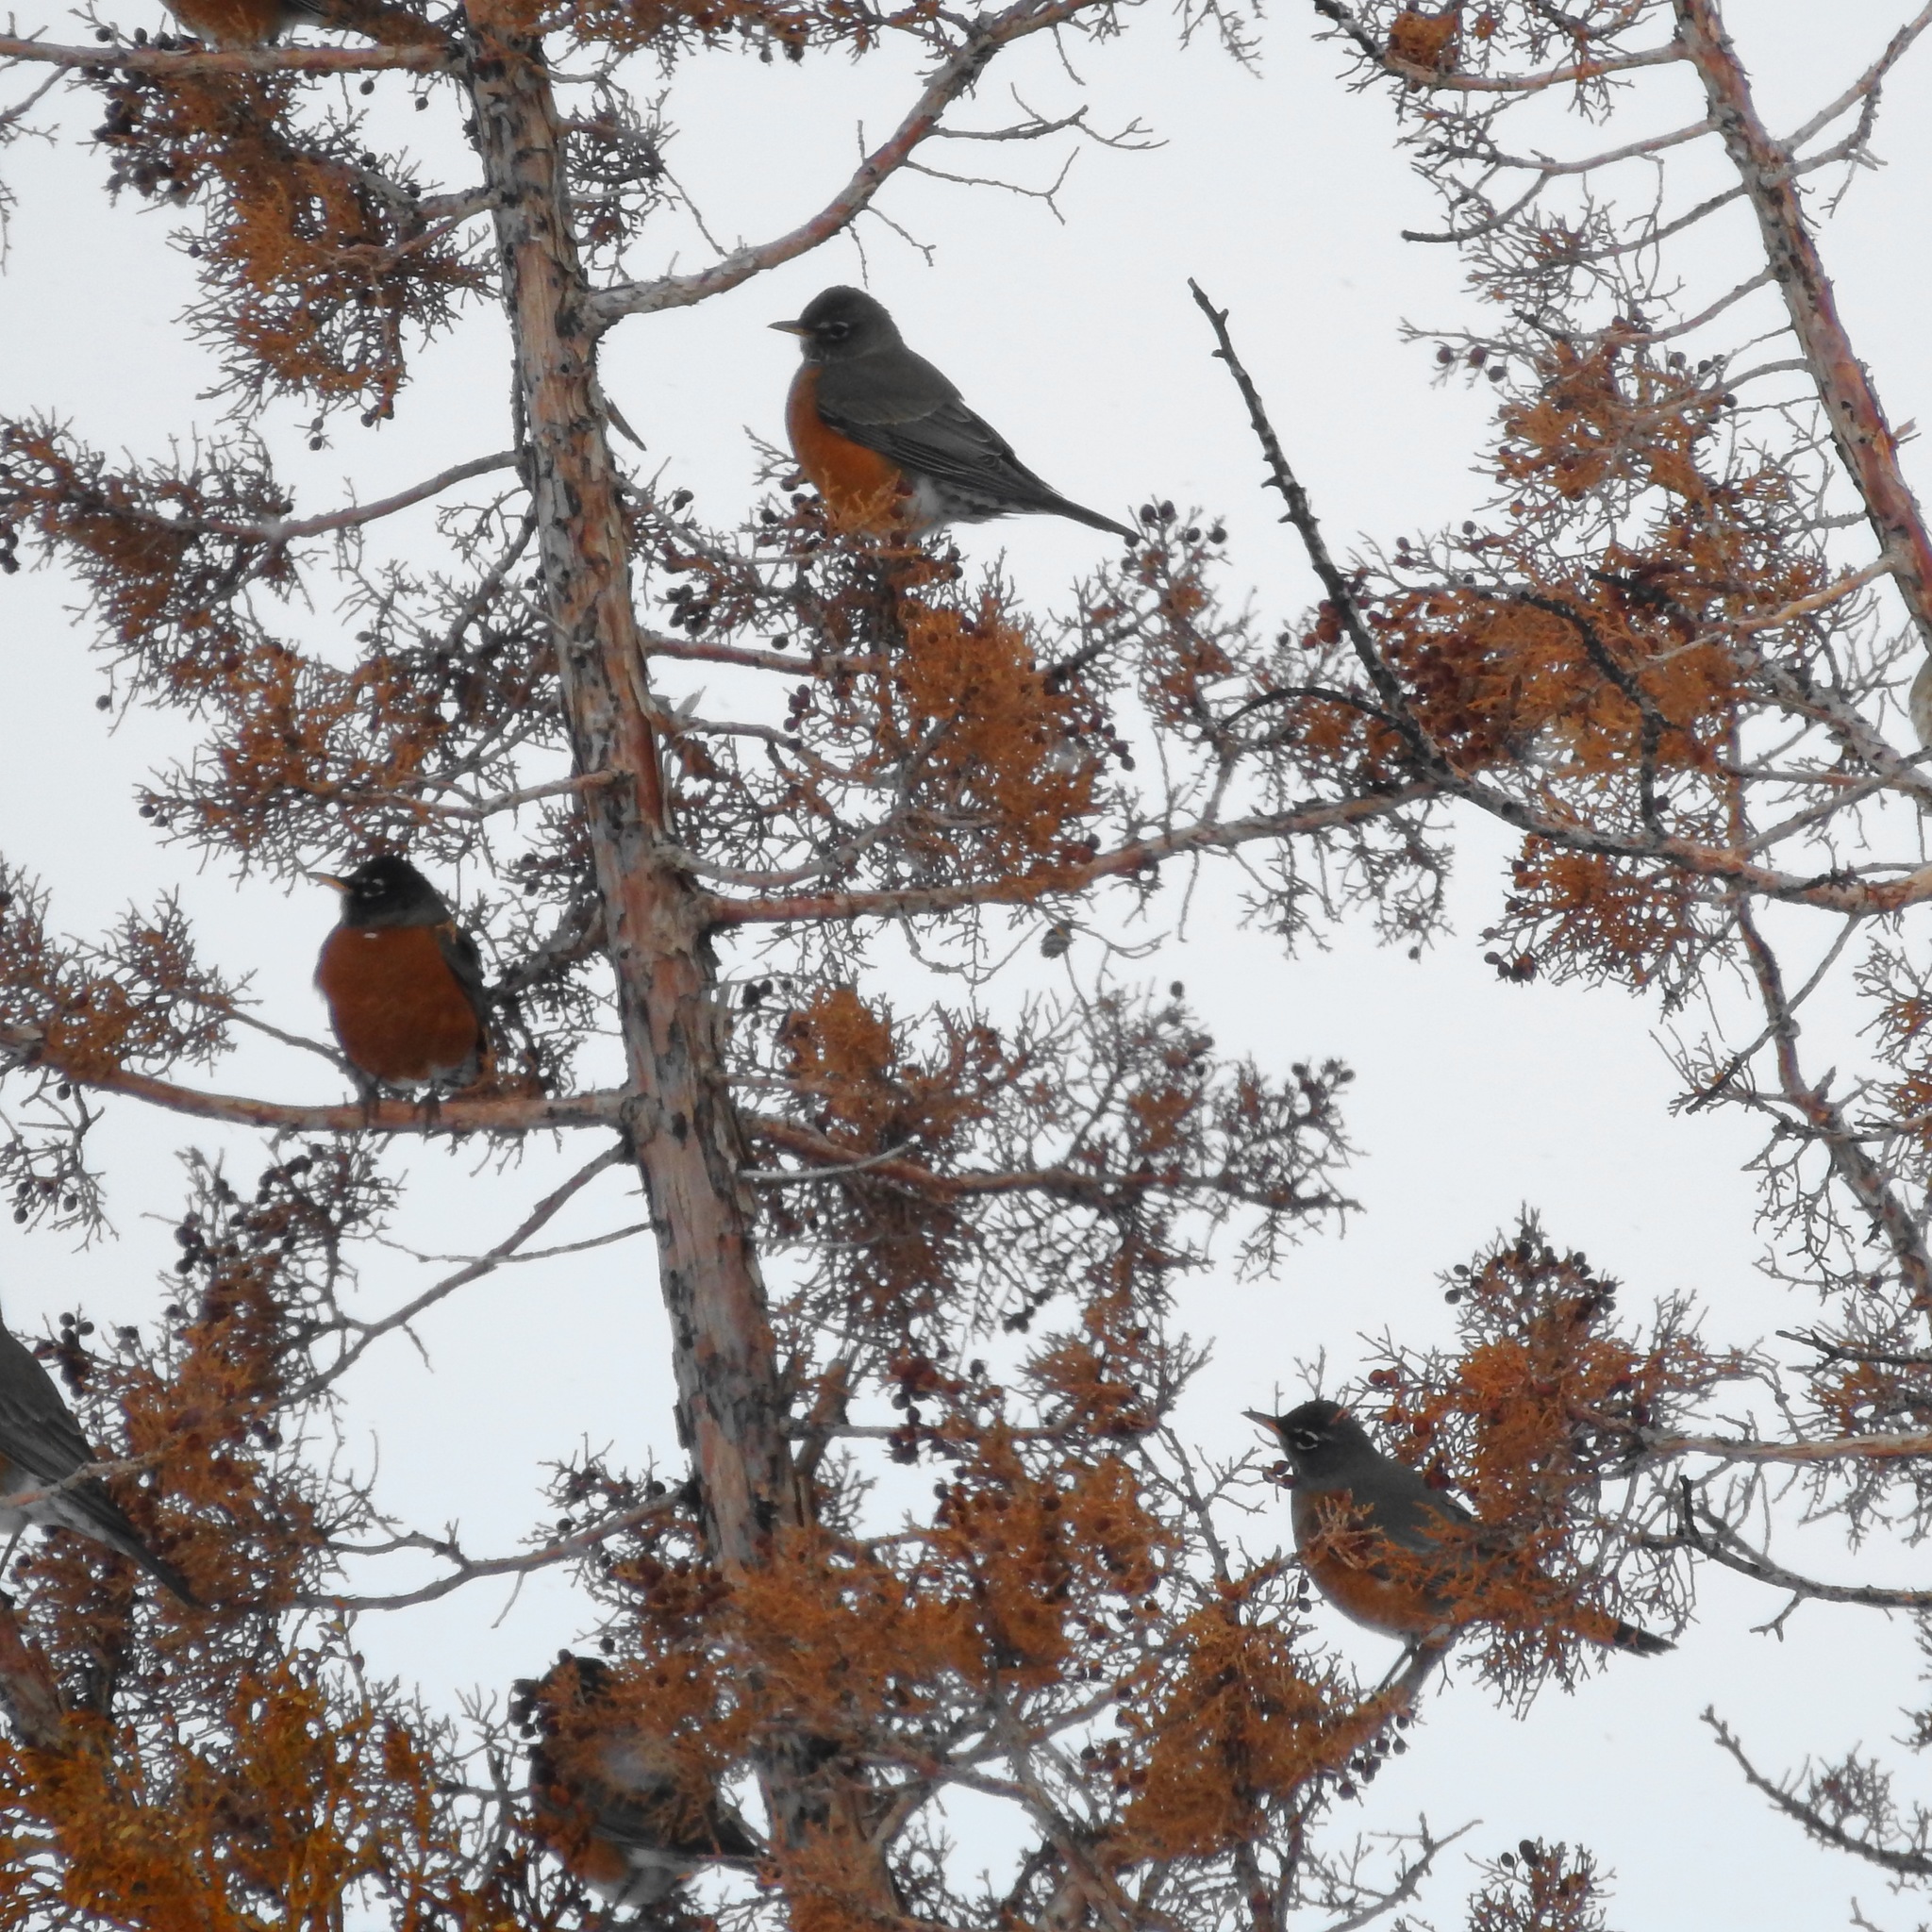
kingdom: Animalia
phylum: Chordata
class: Aves
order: Passeriformes
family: Turdidae
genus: Turdus
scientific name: Turdus migratorius
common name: American robin
